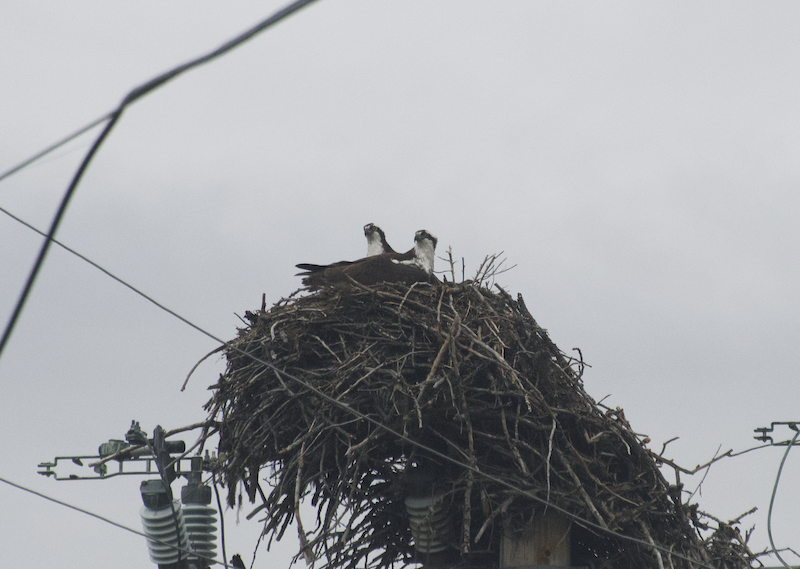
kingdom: Animalia
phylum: Chordata
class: Aves
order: Accipitriformes
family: Pandionidae
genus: Pandion
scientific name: Pandion haliaetus
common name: Osprey
